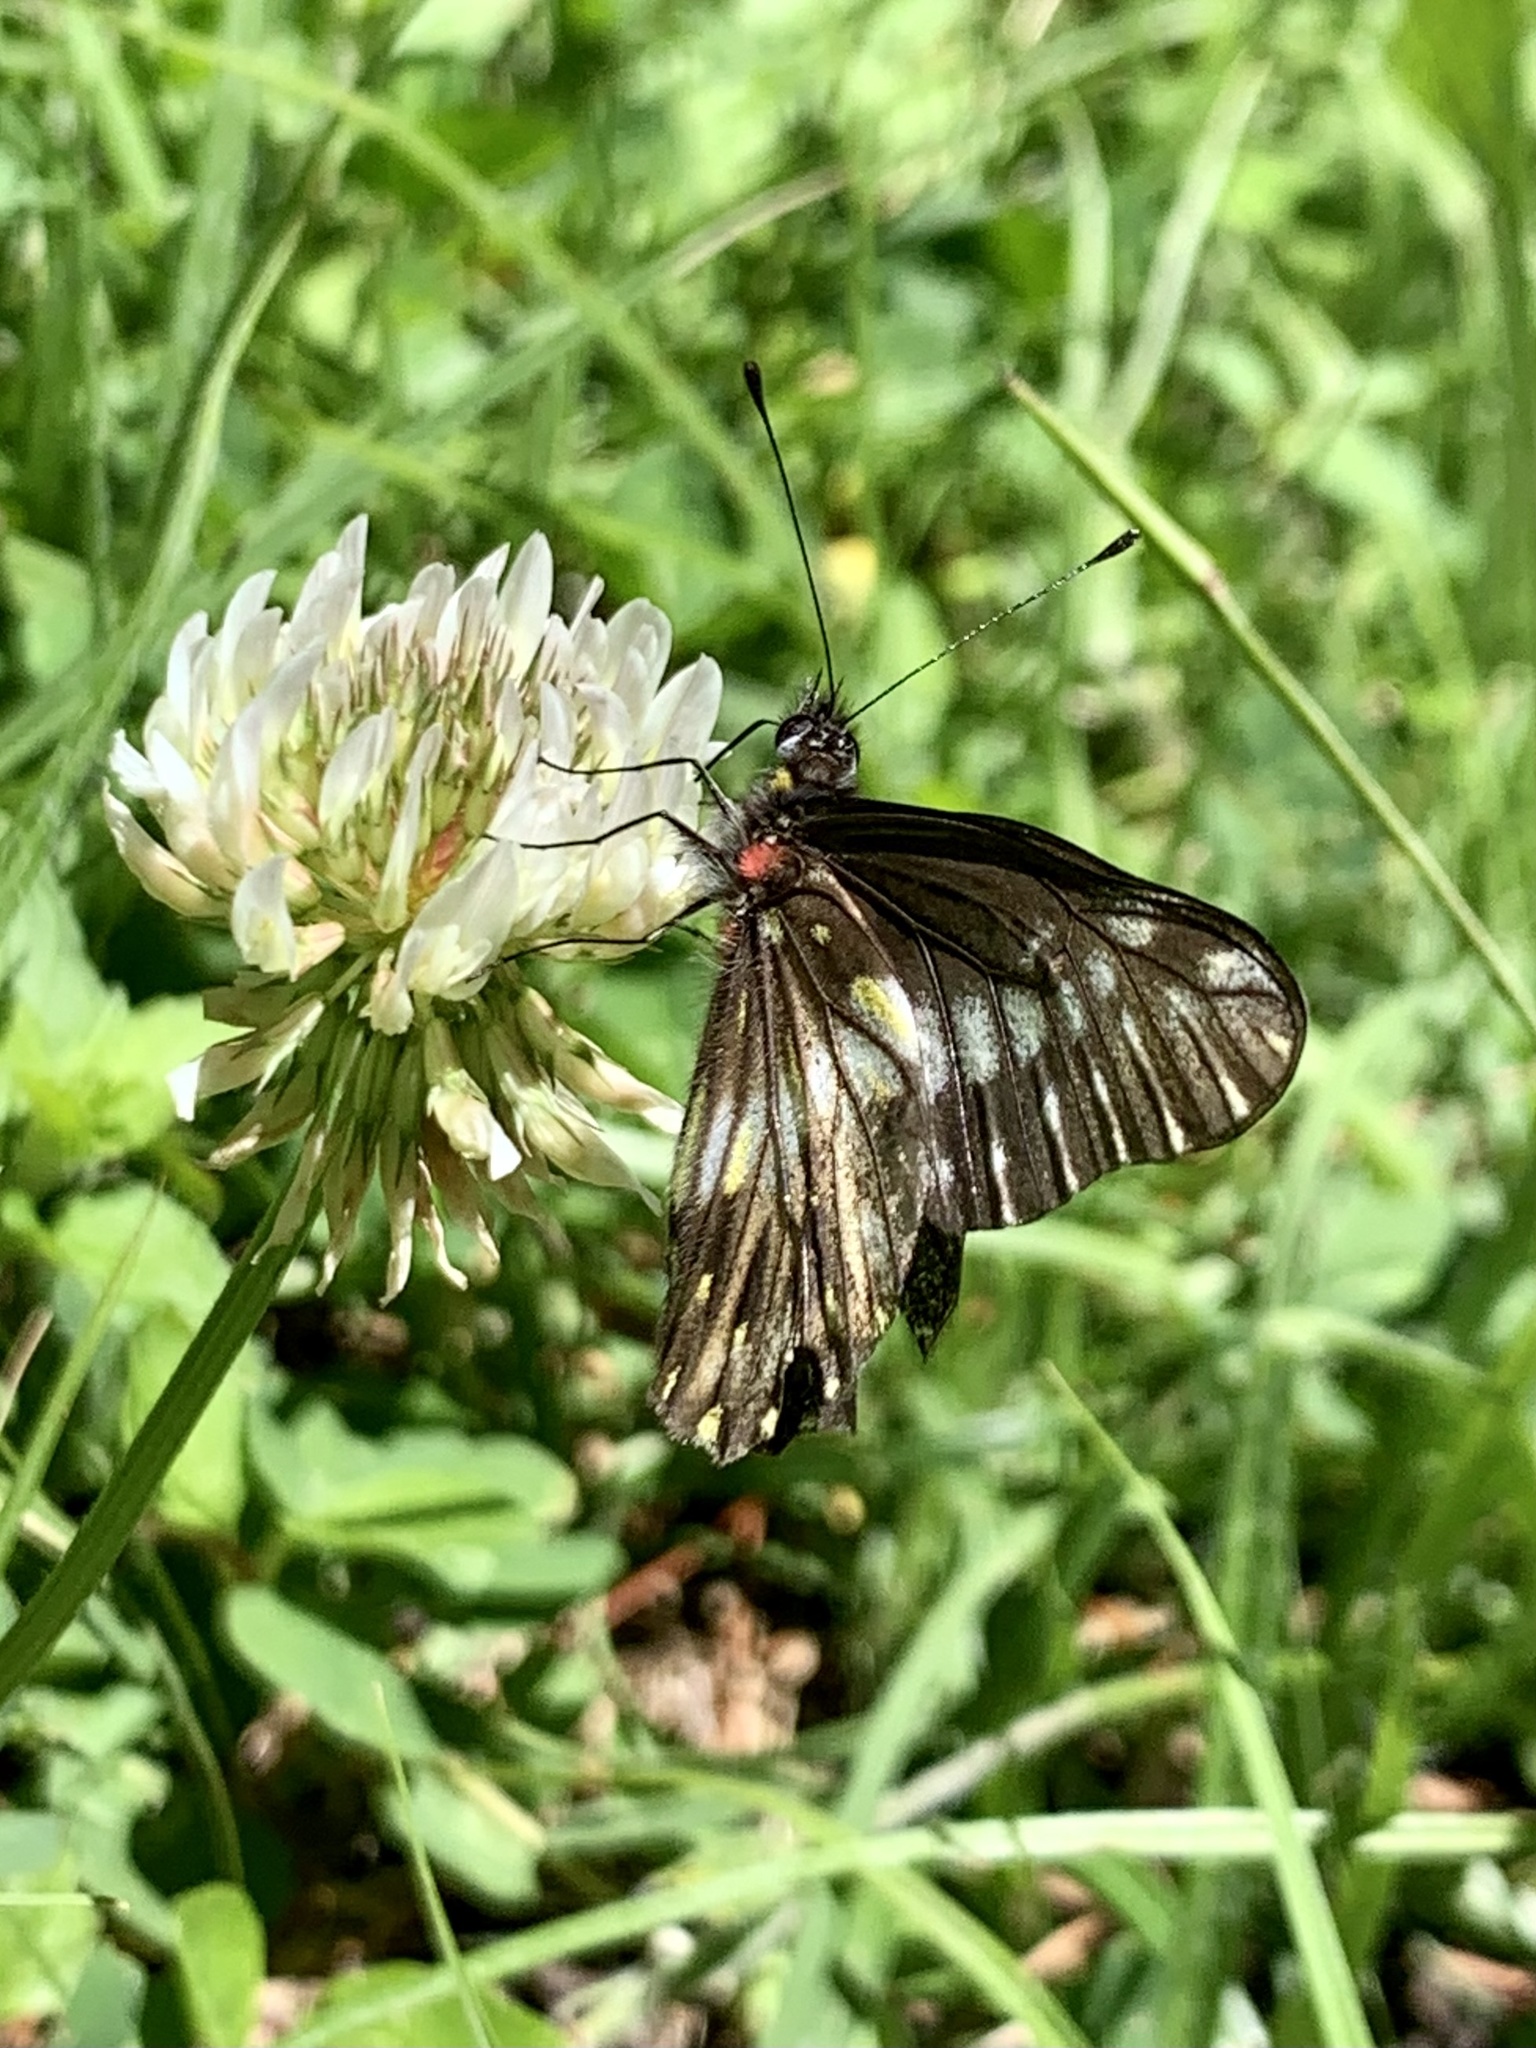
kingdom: Animalia
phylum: Arthropoda
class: Insecta
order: Lepidoptera
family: Pieridae
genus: Archonias
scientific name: Archonias flisa
